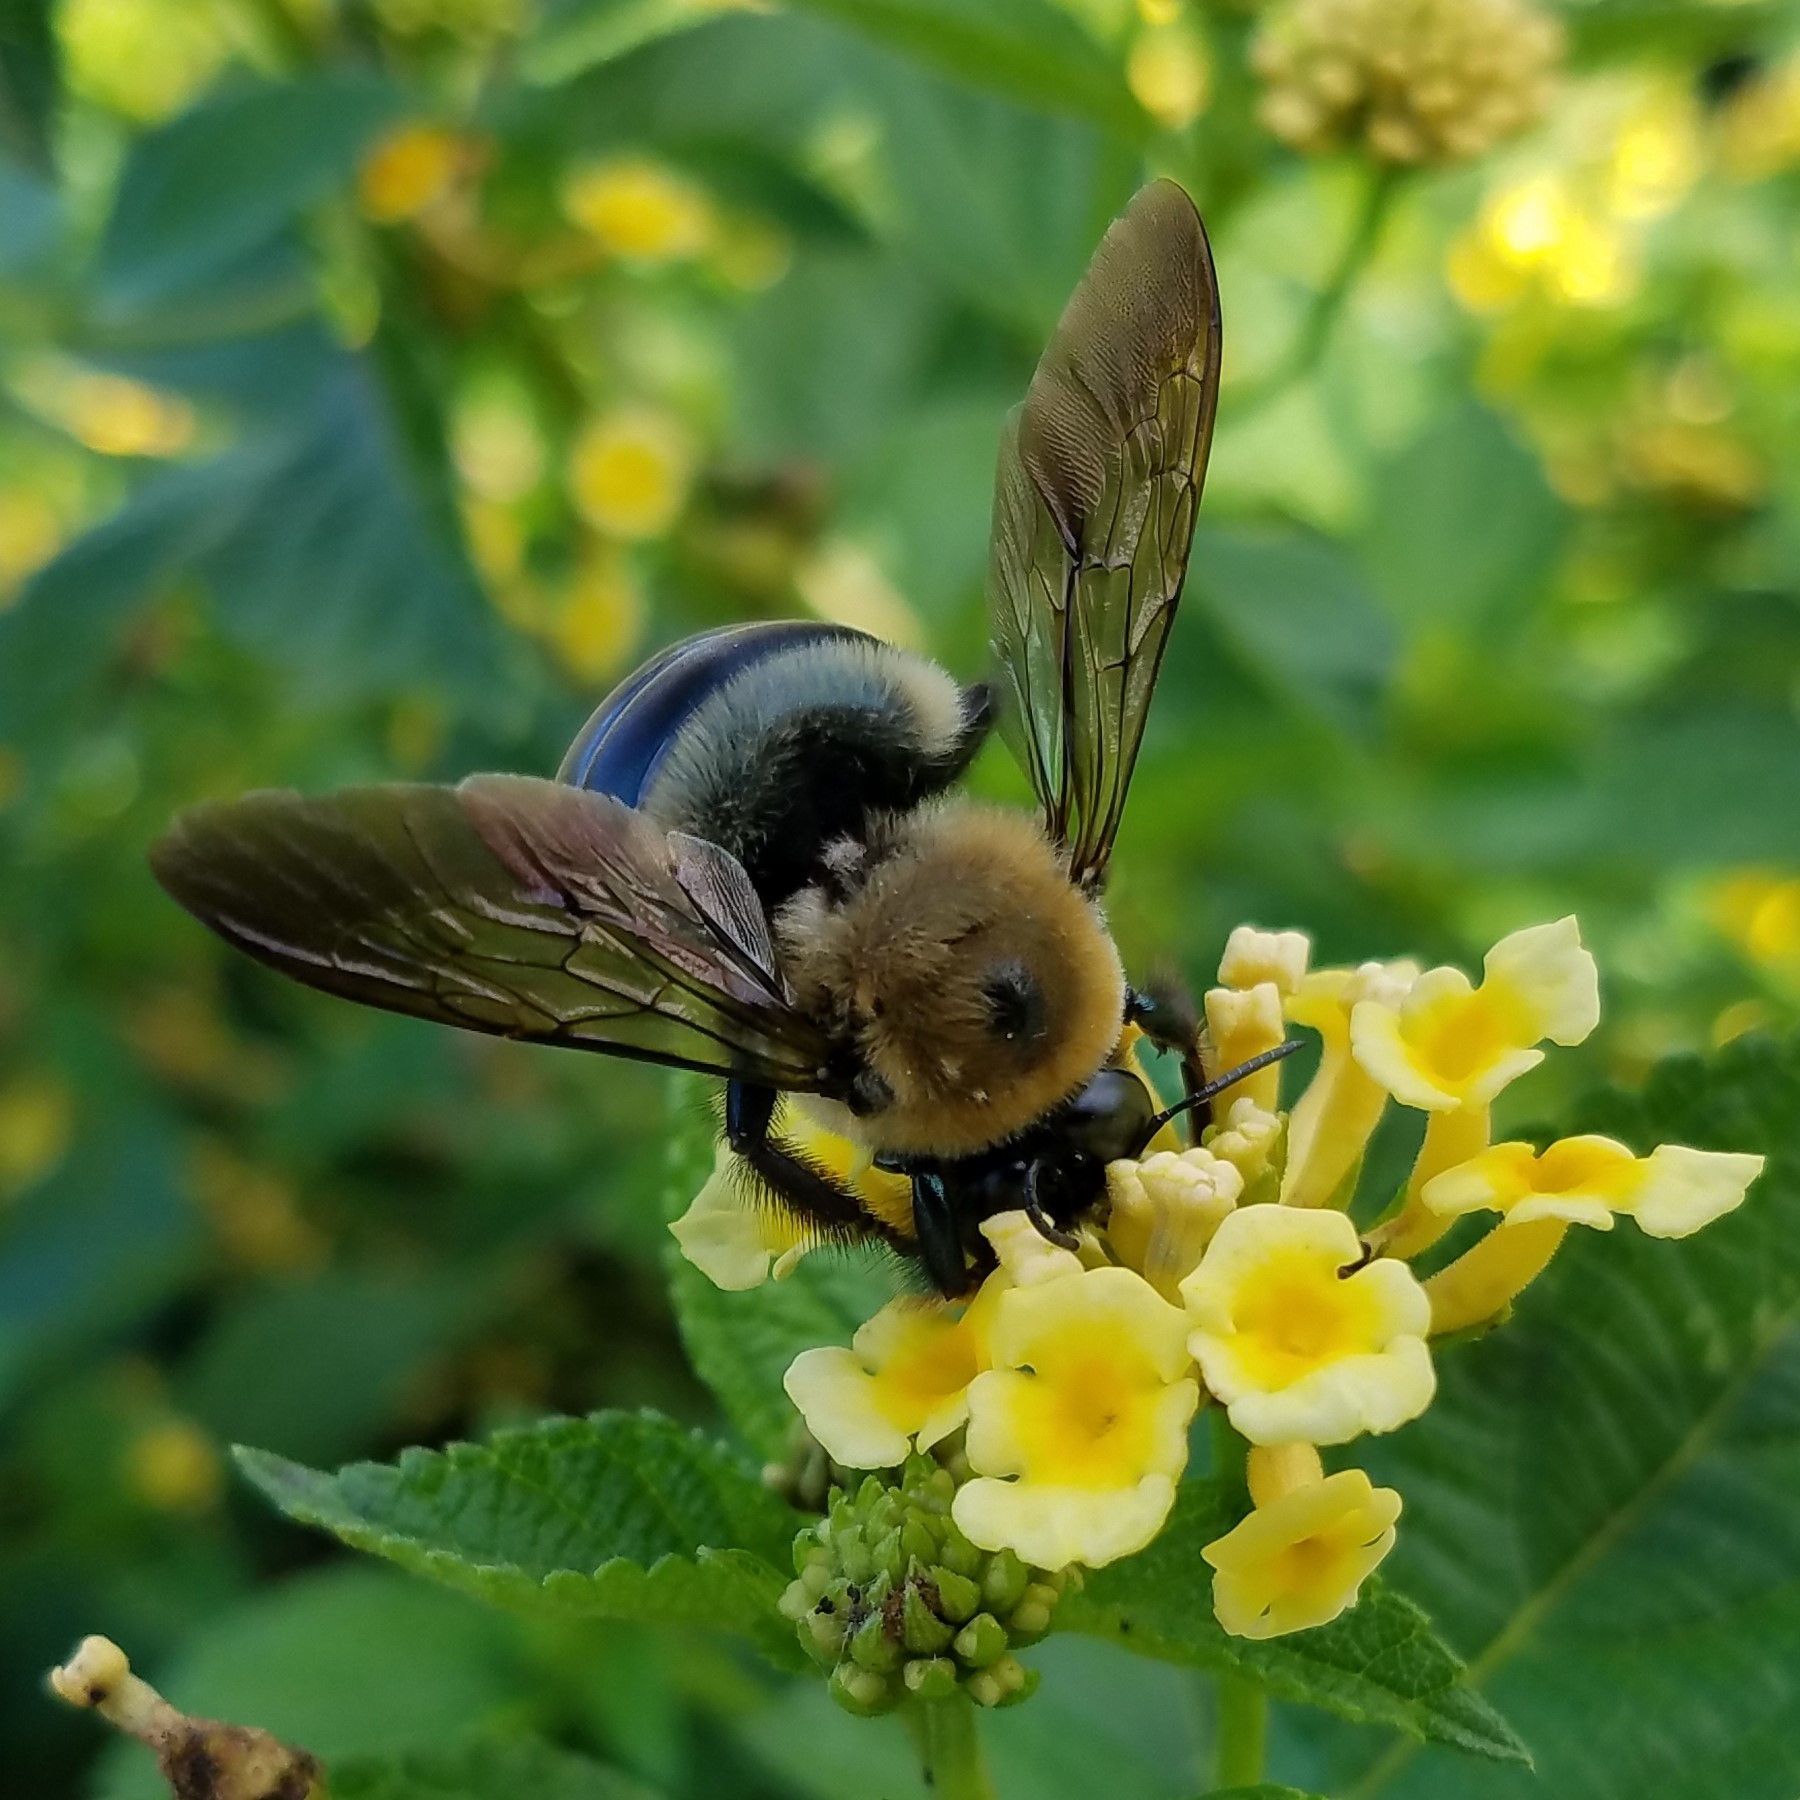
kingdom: Animalia
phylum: Arthropoda
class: Insecta
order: Hymenoptera
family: Apidae
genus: Xylocopa
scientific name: Xylocopa virginica
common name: Carpenter bee
